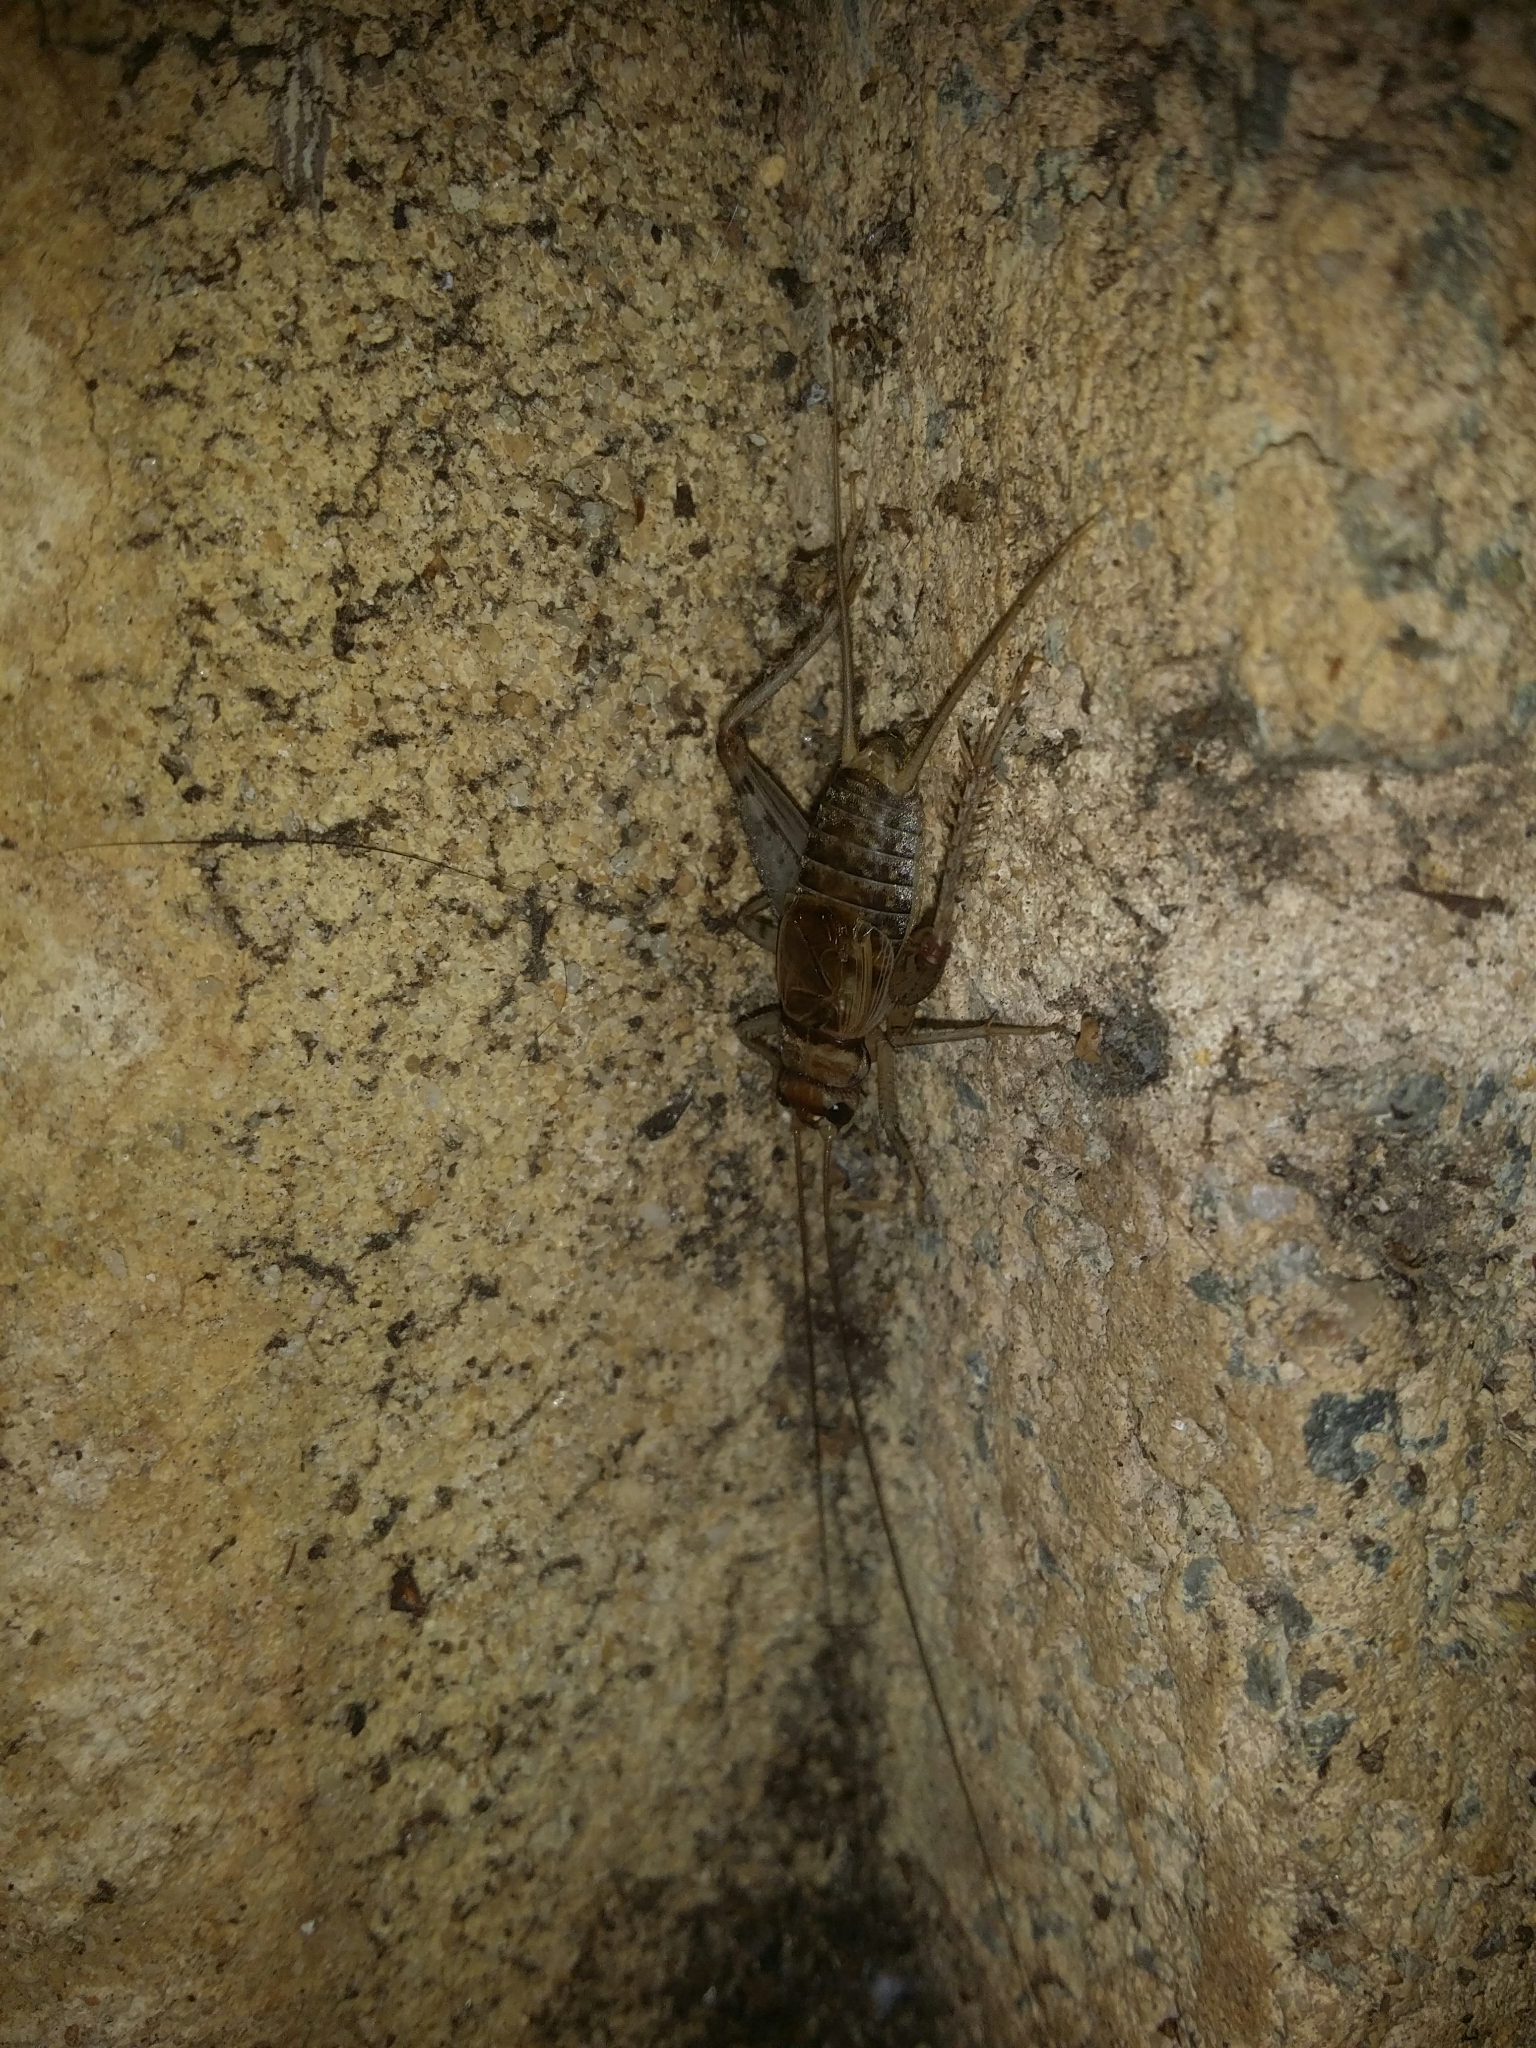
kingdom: Animalia
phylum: Arthropoda
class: Insecta
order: Orthoptera
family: Gryllidae
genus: Gryllodes
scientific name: Gryllodes sigillatus
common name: Tropical house cricket
